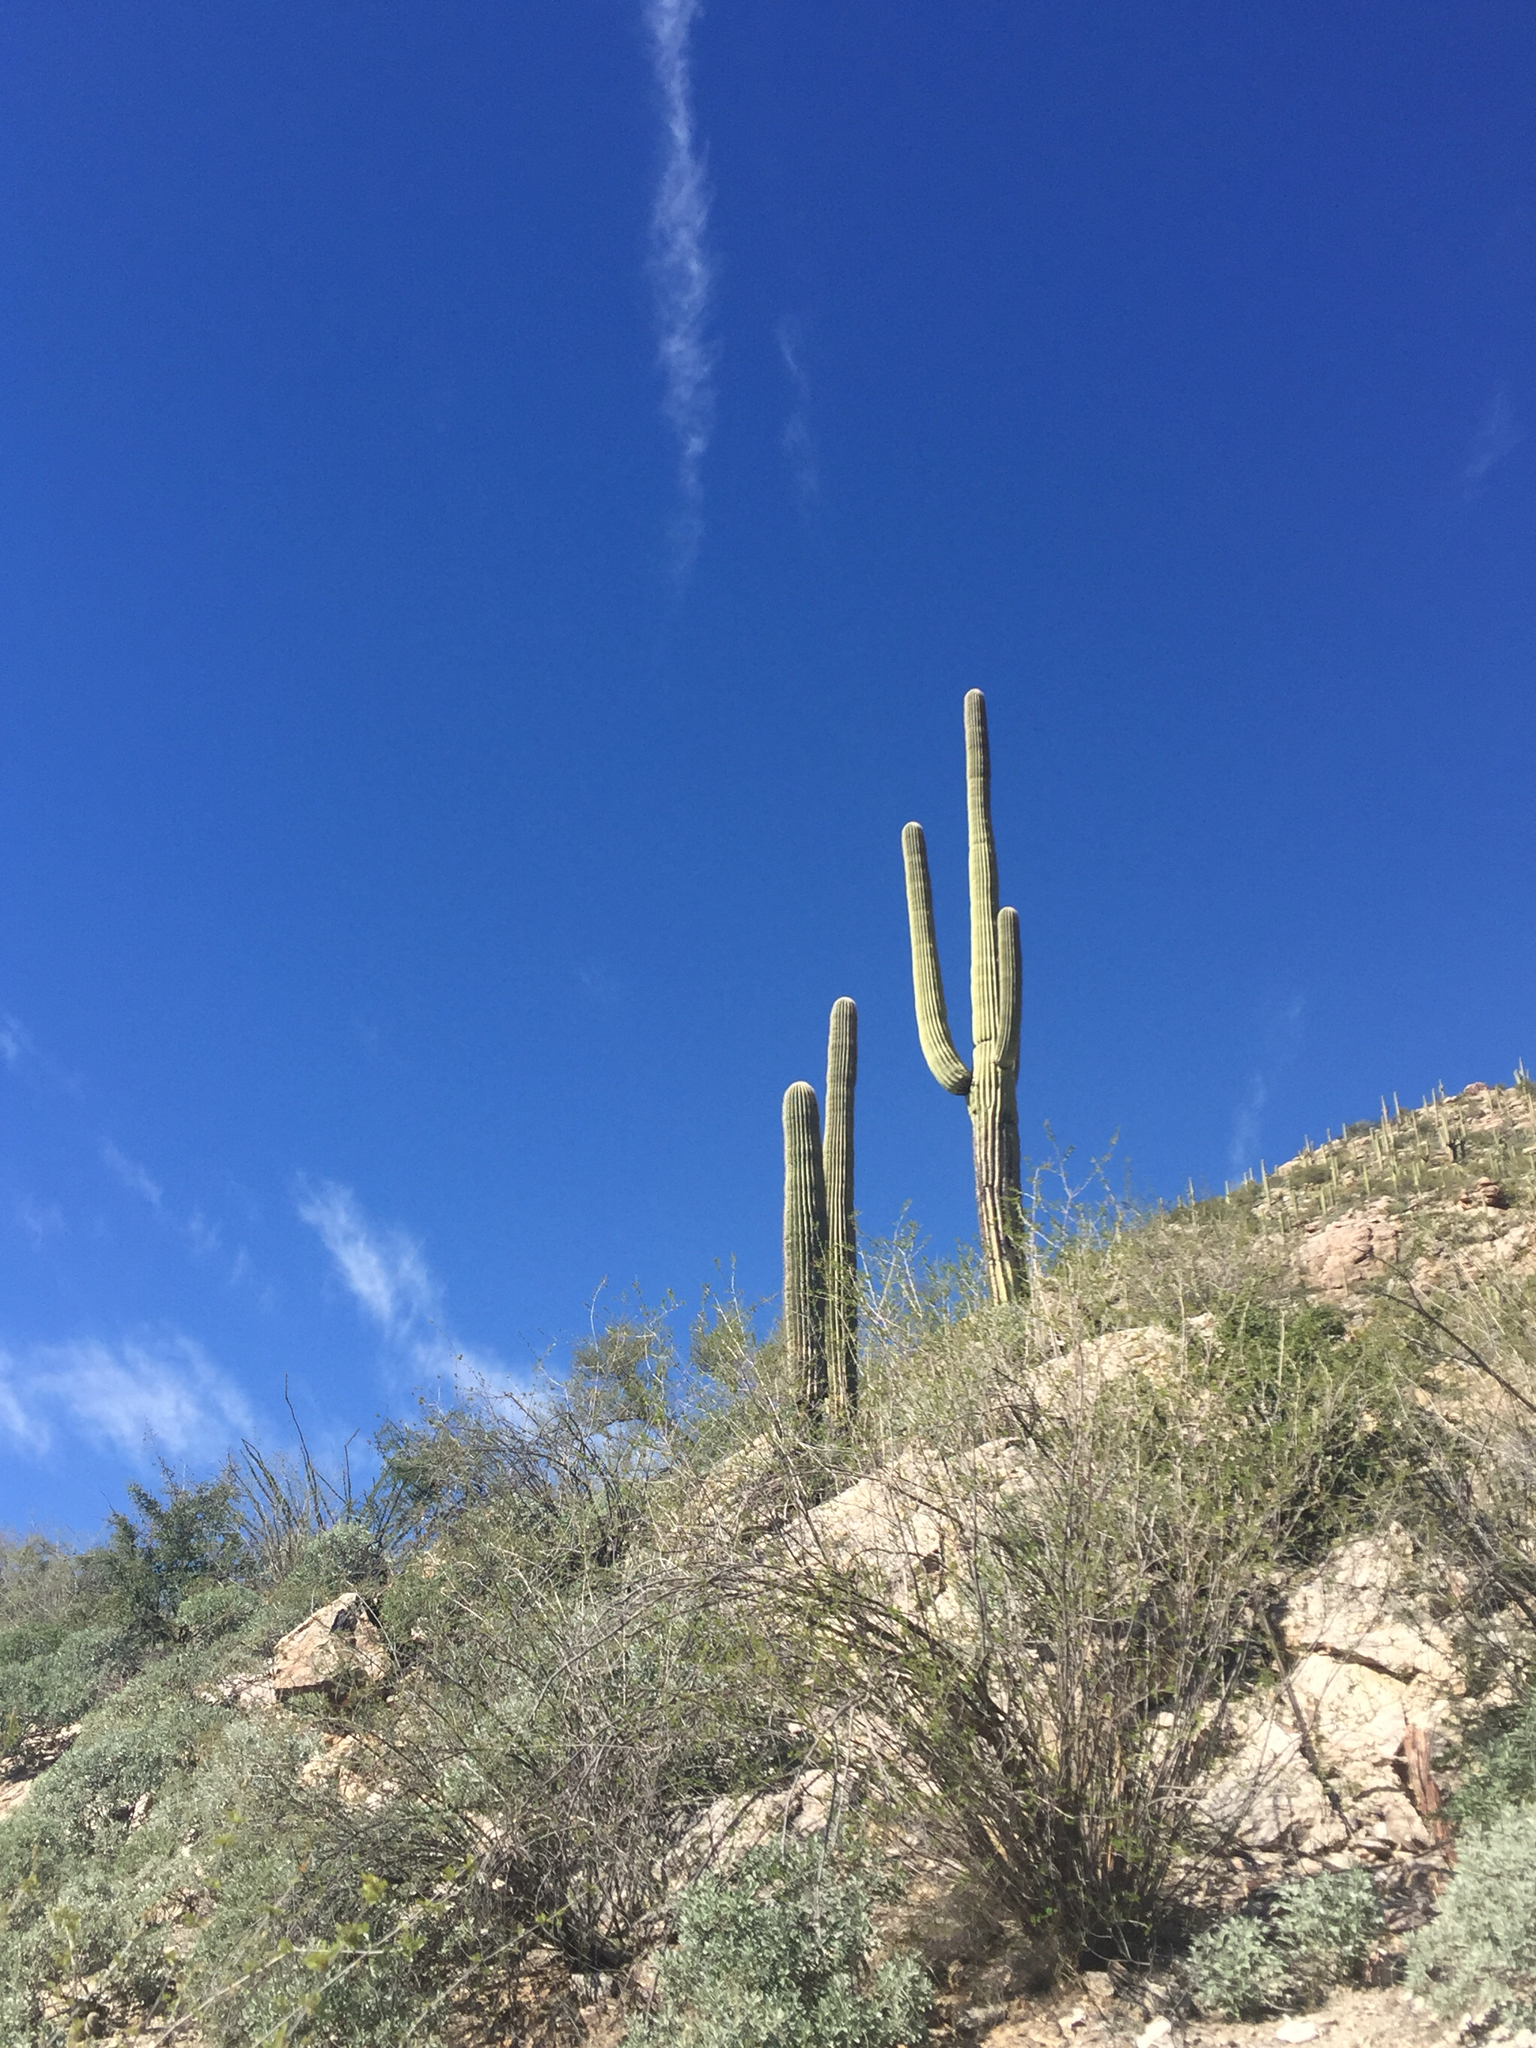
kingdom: Plantae
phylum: Tracheophyta
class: Magnoliopsida
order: Caryophyllales
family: Cactaceae
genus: Carnegiea
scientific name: Carnegiea gigantea
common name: Saguaro
